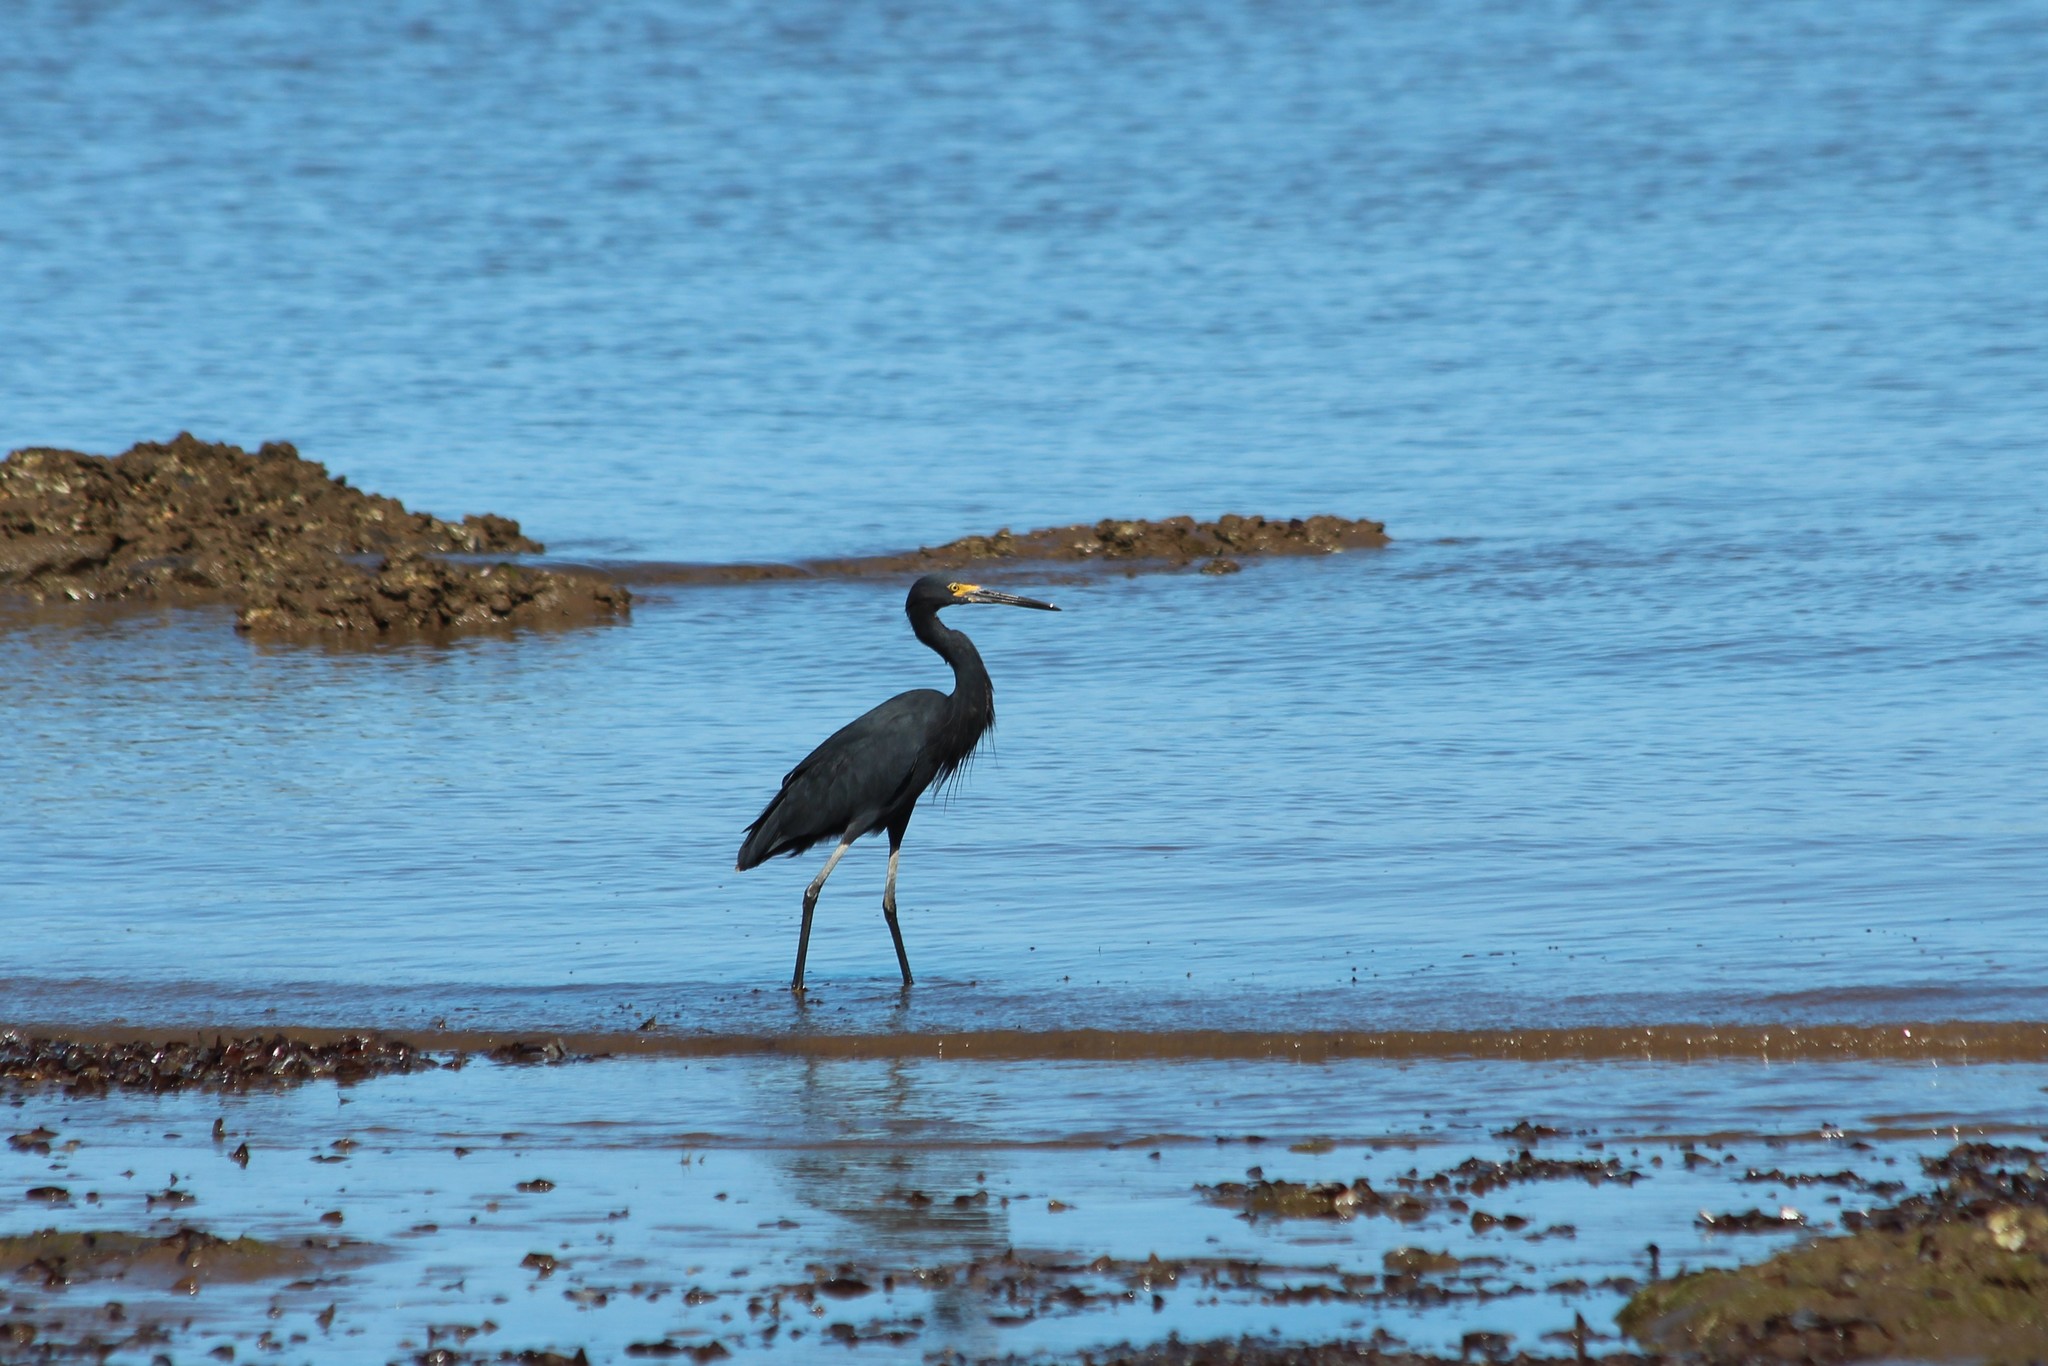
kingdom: Animalia
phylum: Chordata
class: Aves
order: Pelecaniformes
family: Ardeidae
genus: Egretta
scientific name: Egretta dimorpha
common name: Dimorphic egret
